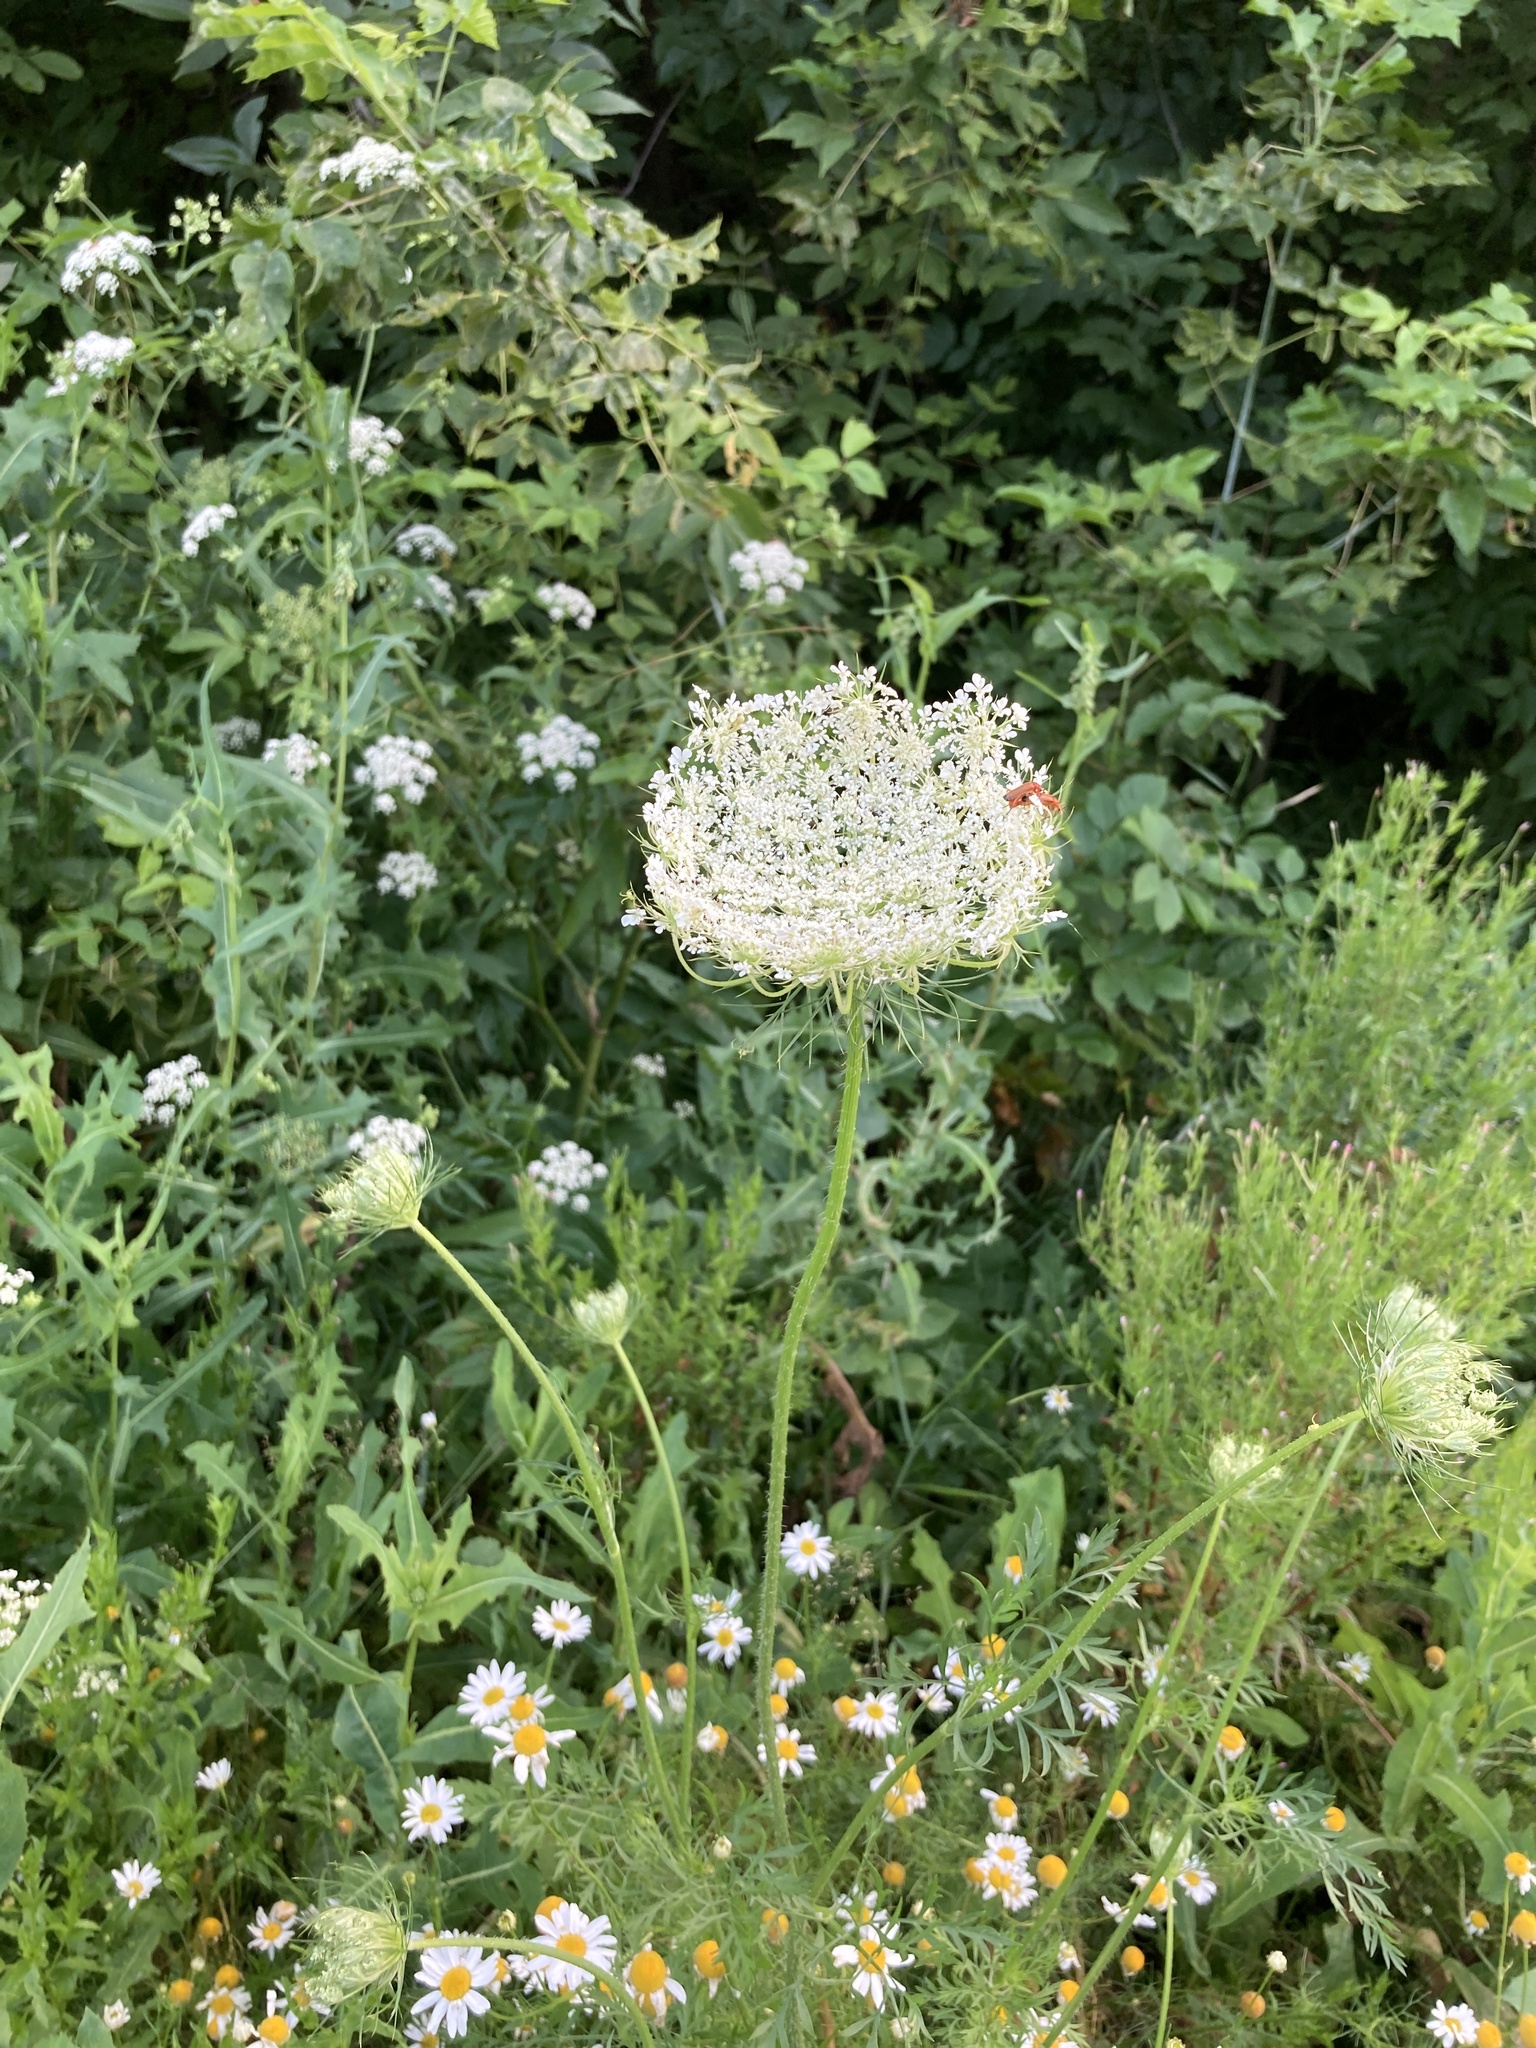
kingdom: Plantae
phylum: Tracheophyta
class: Magnoliopsida
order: Apiales
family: Apiaceae
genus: Daucus
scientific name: Daucus carota
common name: Wild carrot
